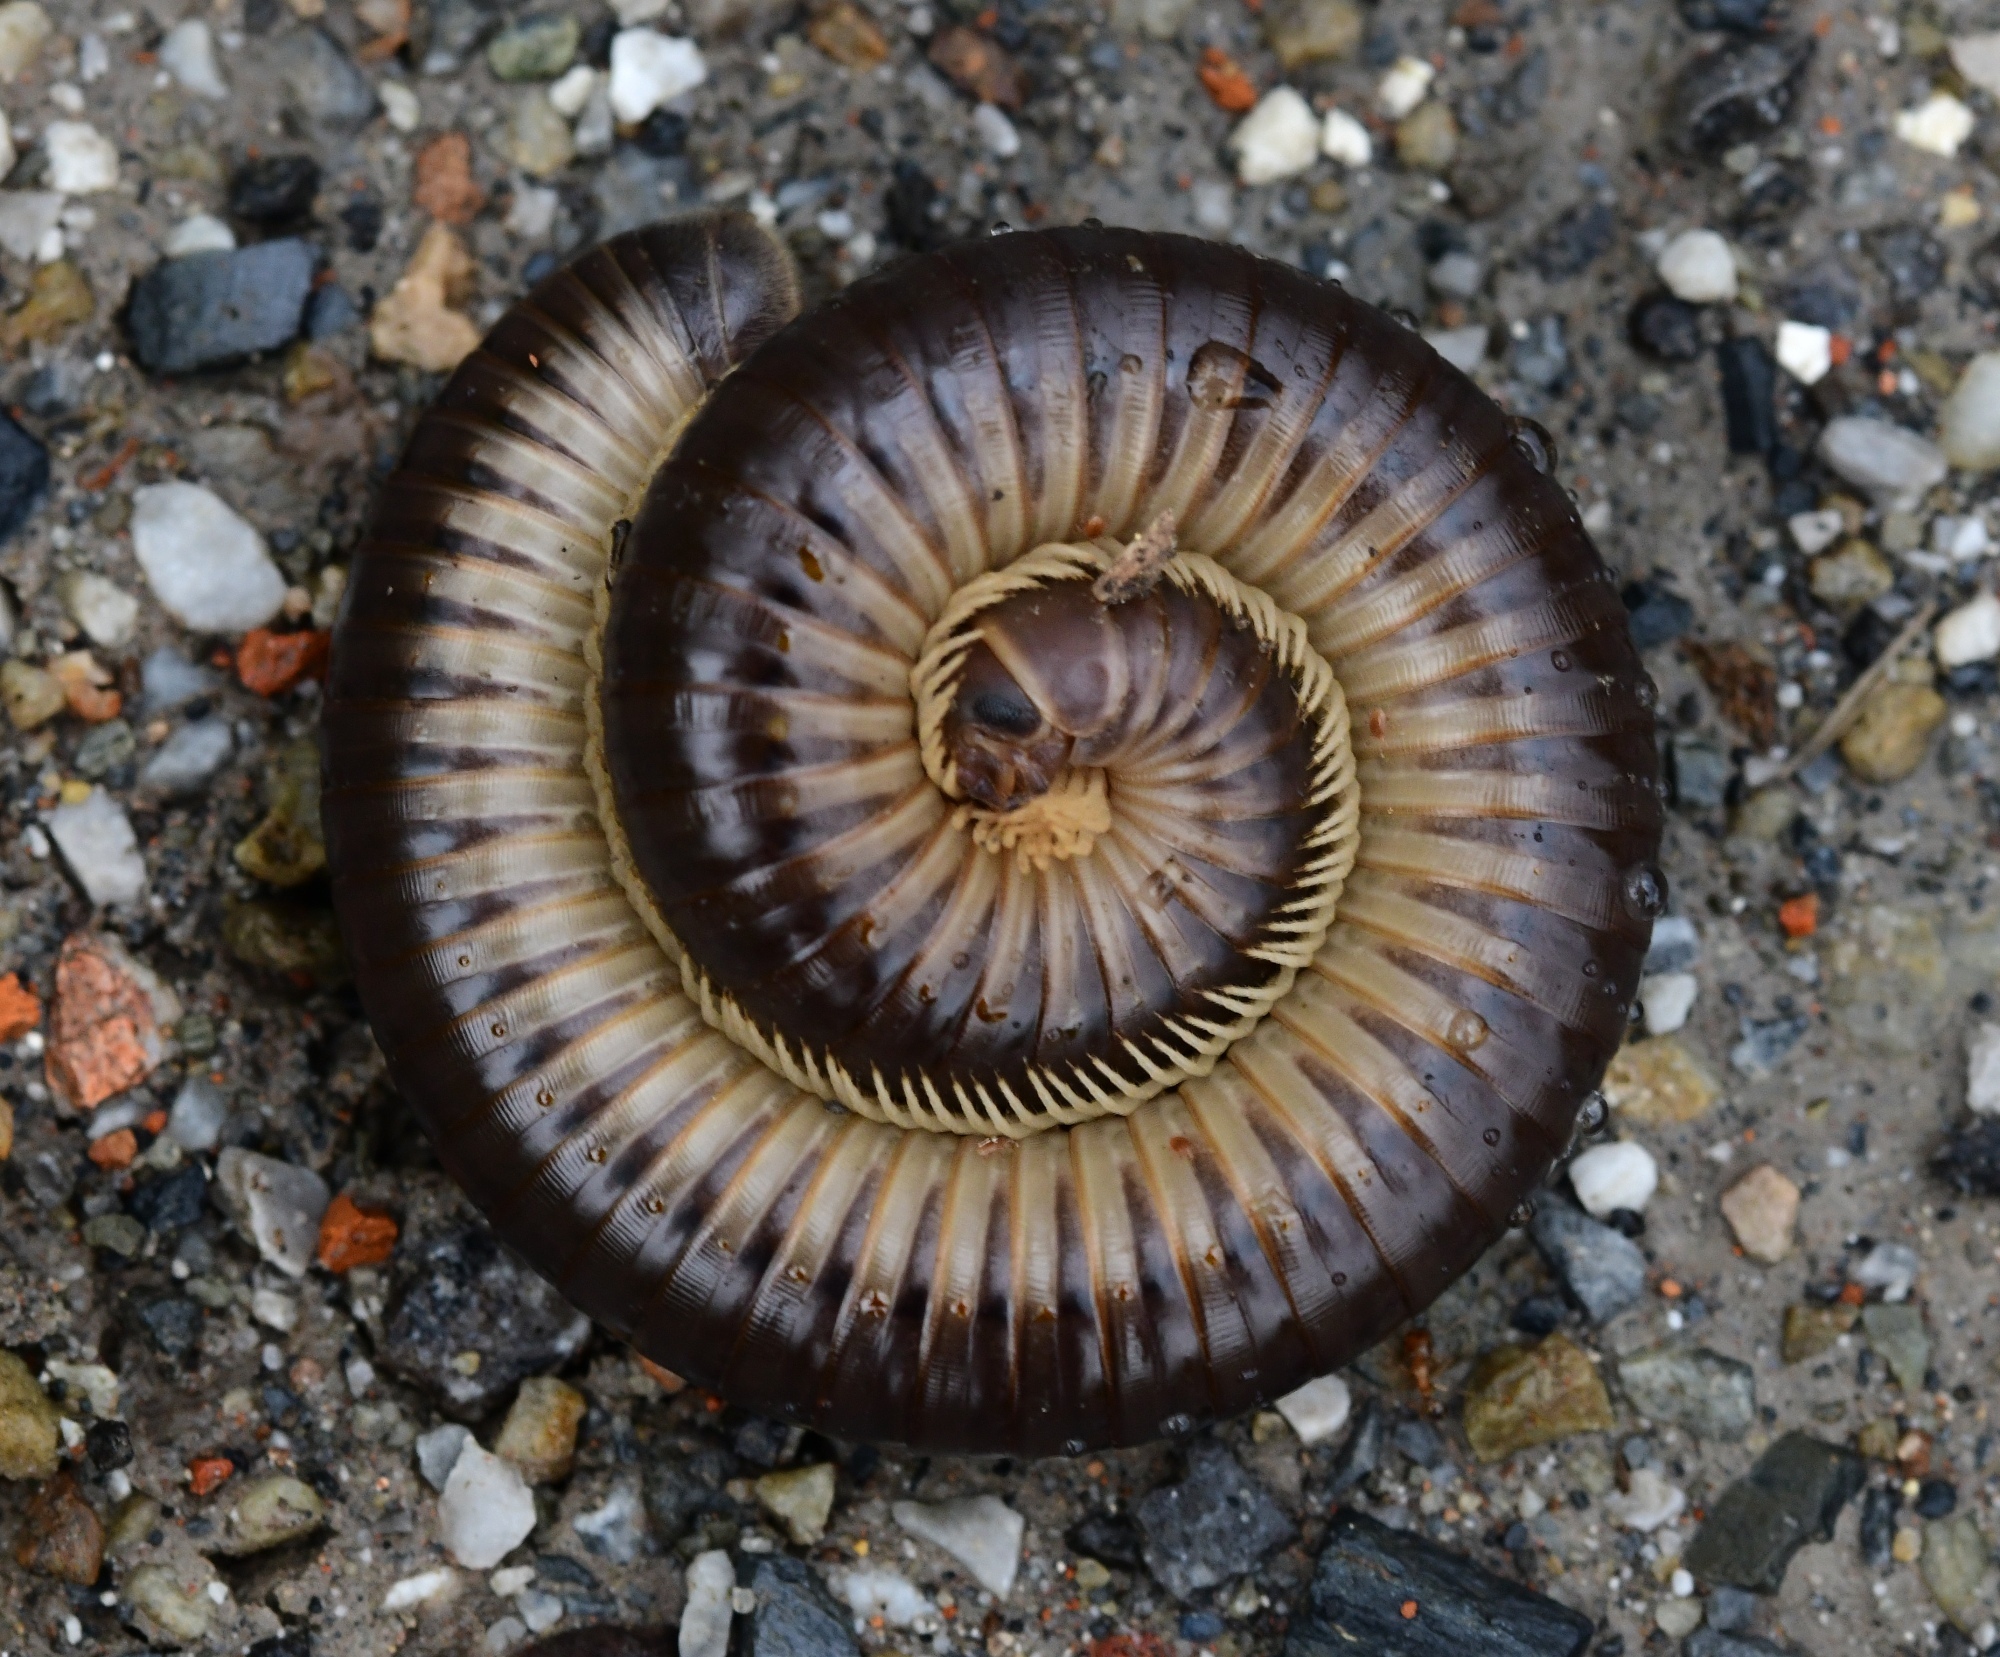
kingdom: Animalia
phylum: Arthropoda
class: Diplopoda
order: Julida
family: Julidae
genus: Pachyiulus
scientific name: Pachyiulus flavipes
